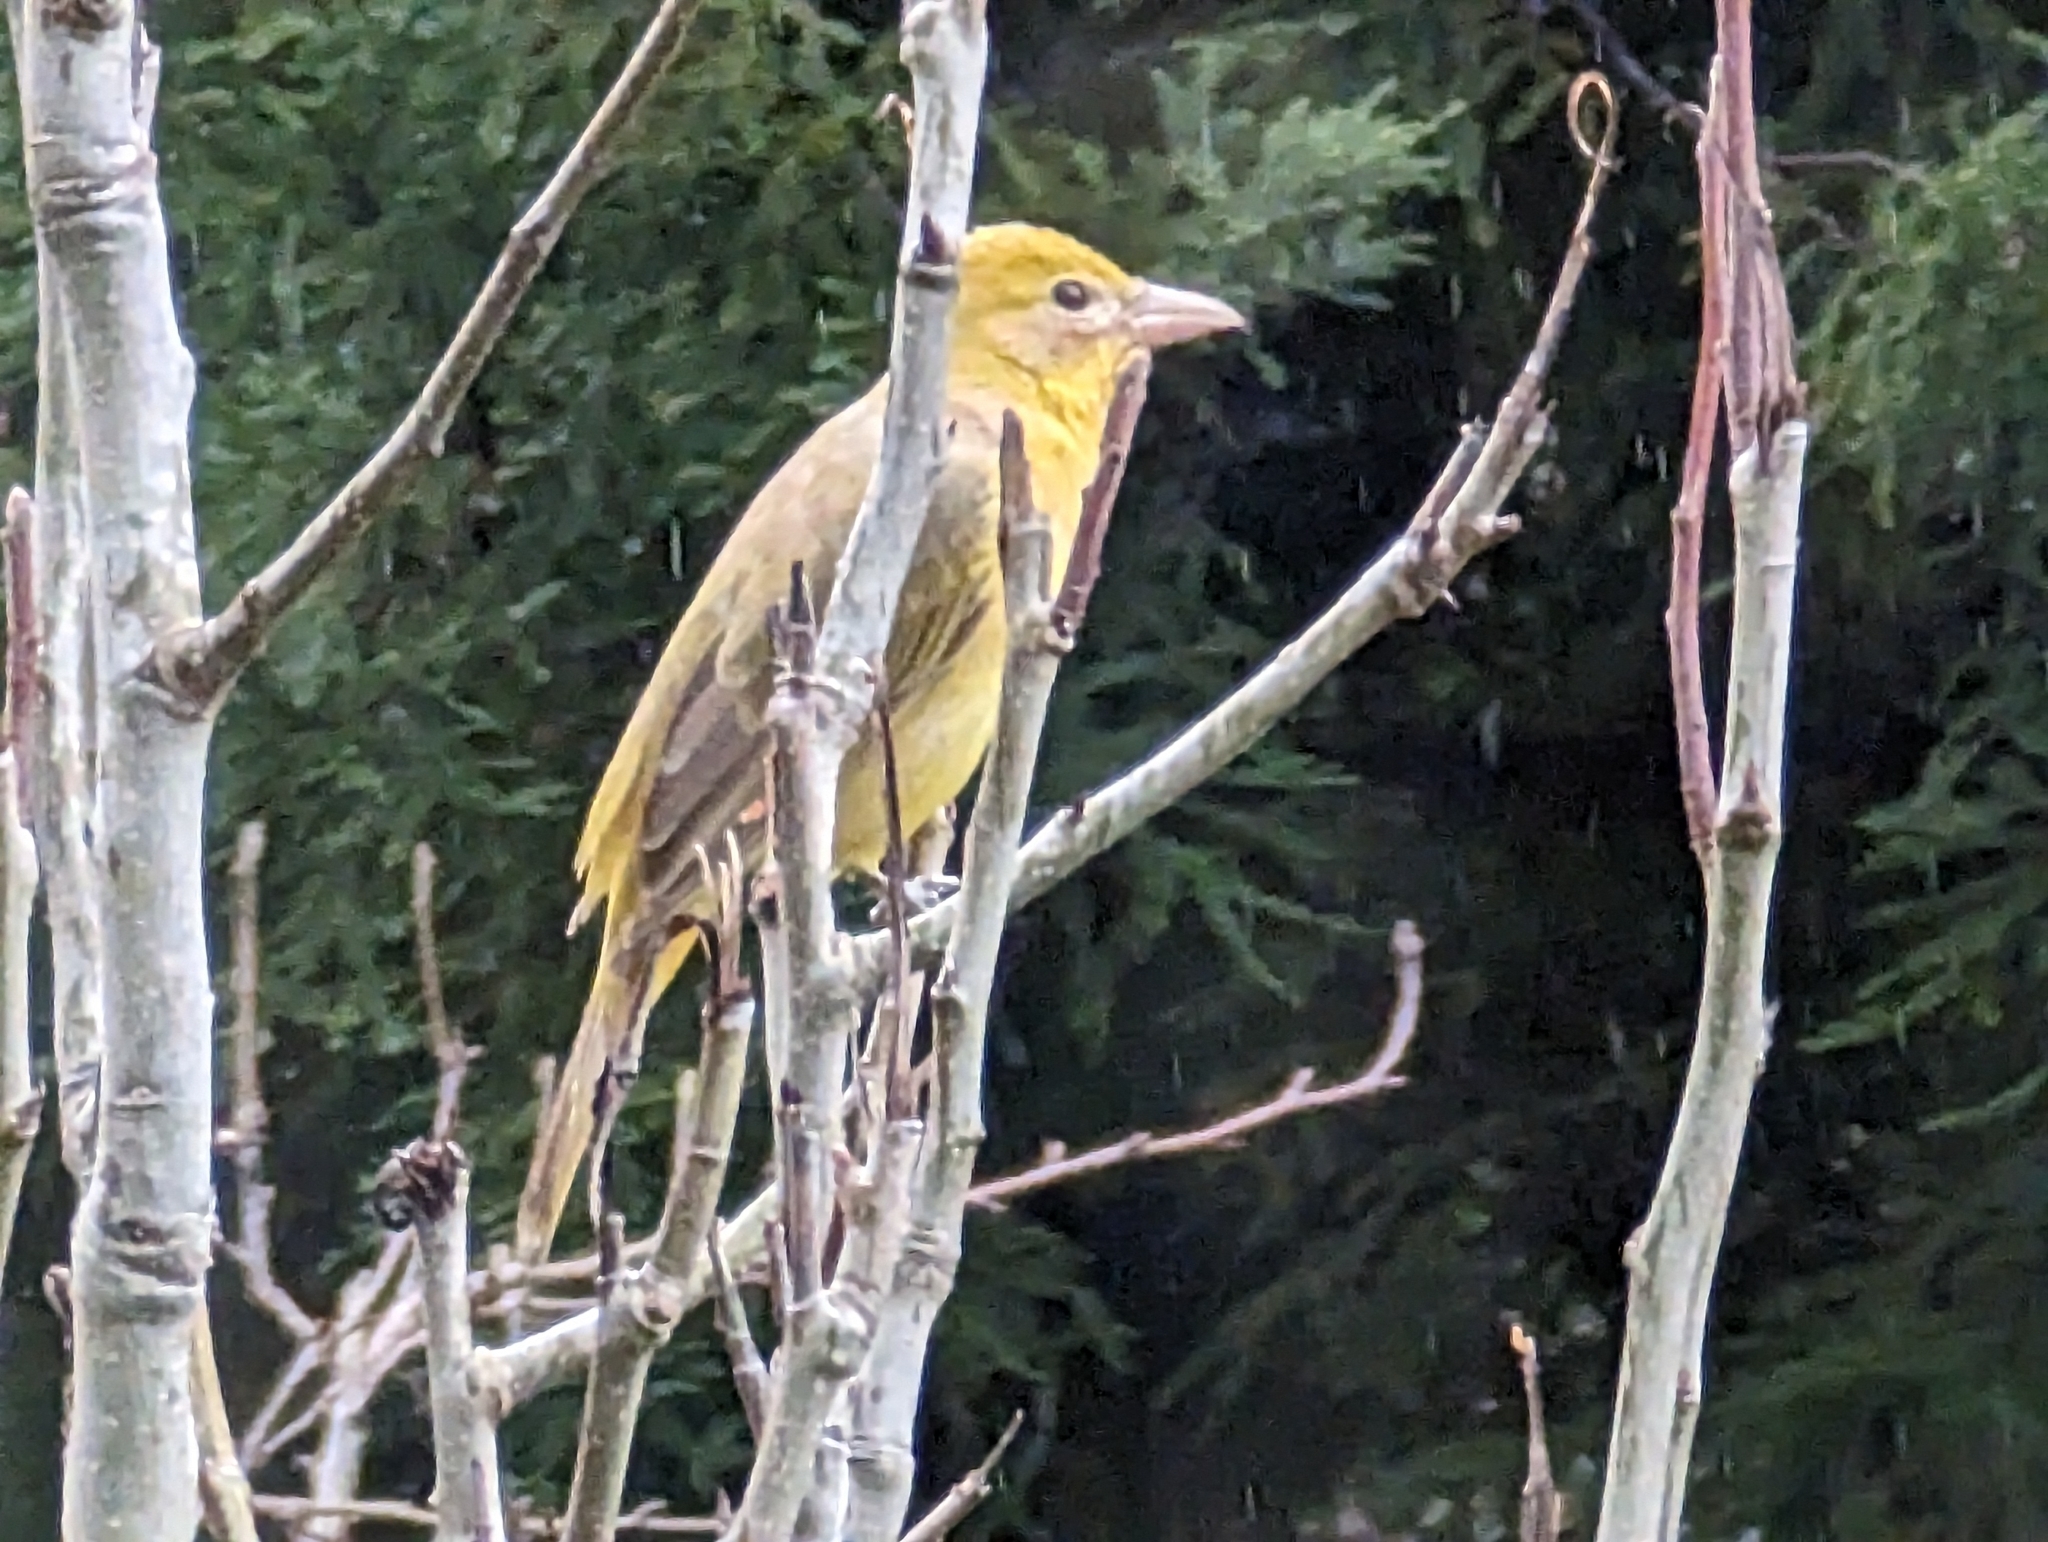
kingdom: Animalia
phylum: Chordata
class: Aves
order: Passeriformes
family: Cardinalidae
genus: Piranga
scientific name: Piranga rubra
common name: Summer tanager
